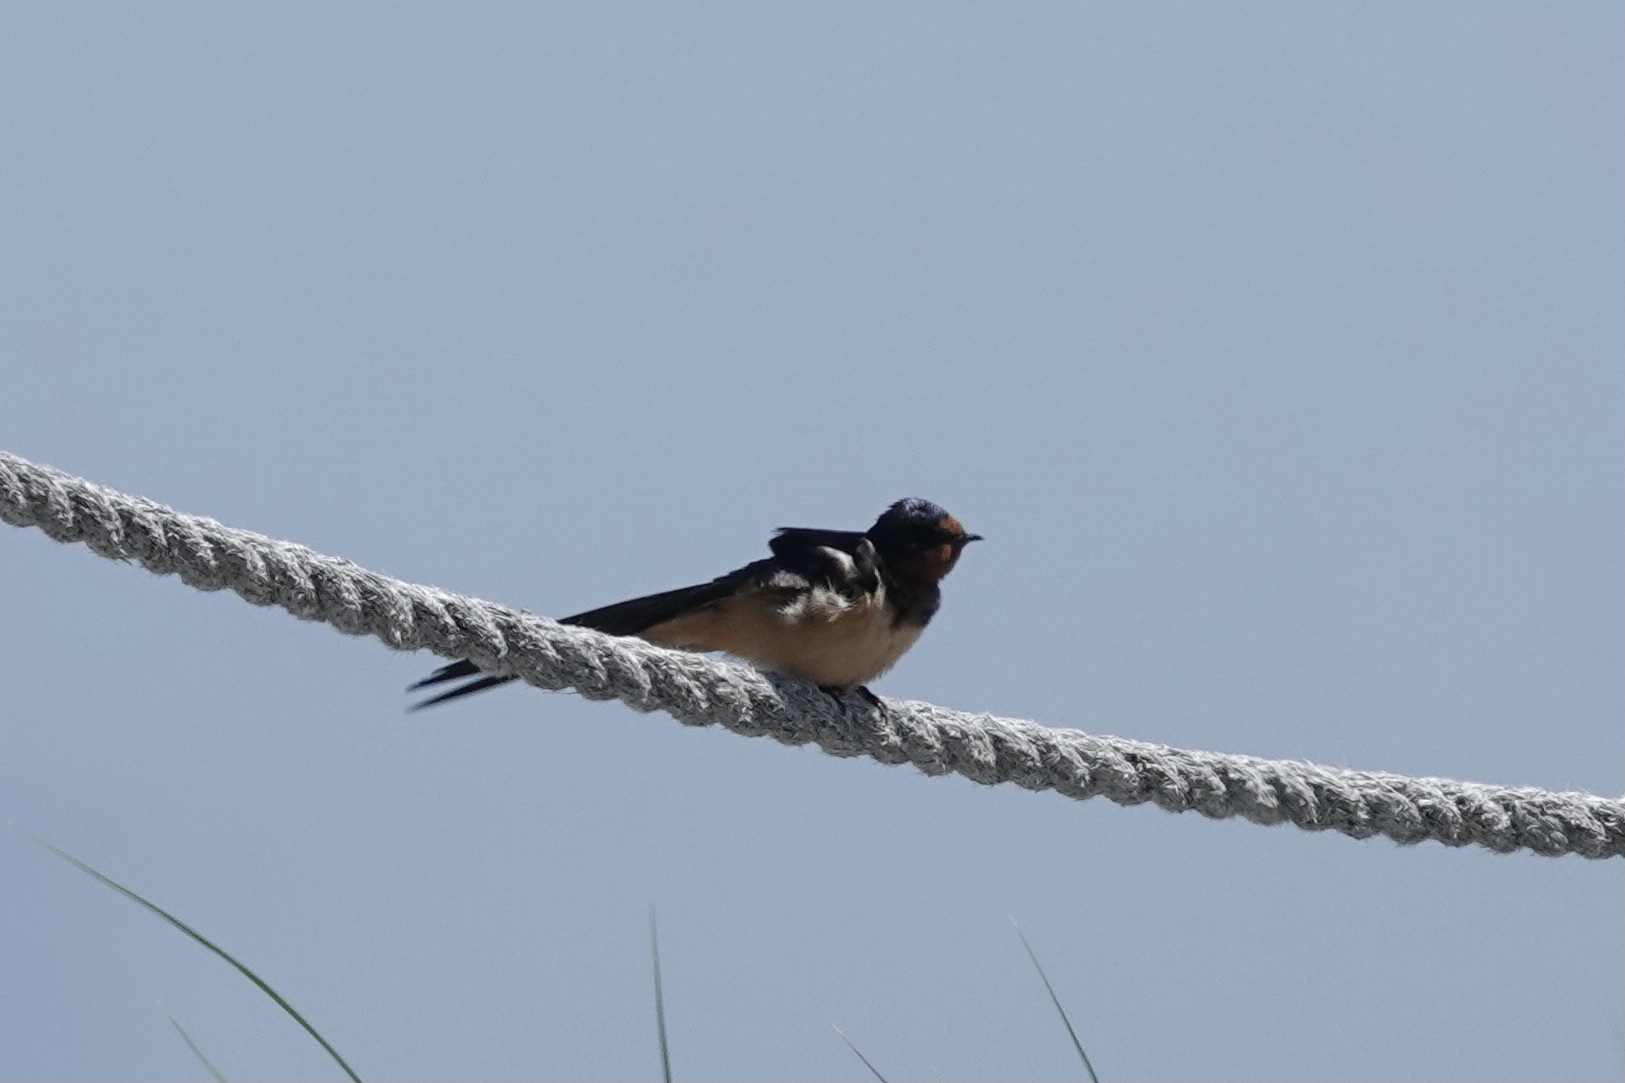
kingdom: Animalia
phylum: Chordata
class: Aves
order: Passeriformes
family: Hirundinidae
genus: Hirundo
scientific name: Hirundo rustica
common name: Barn swallow
